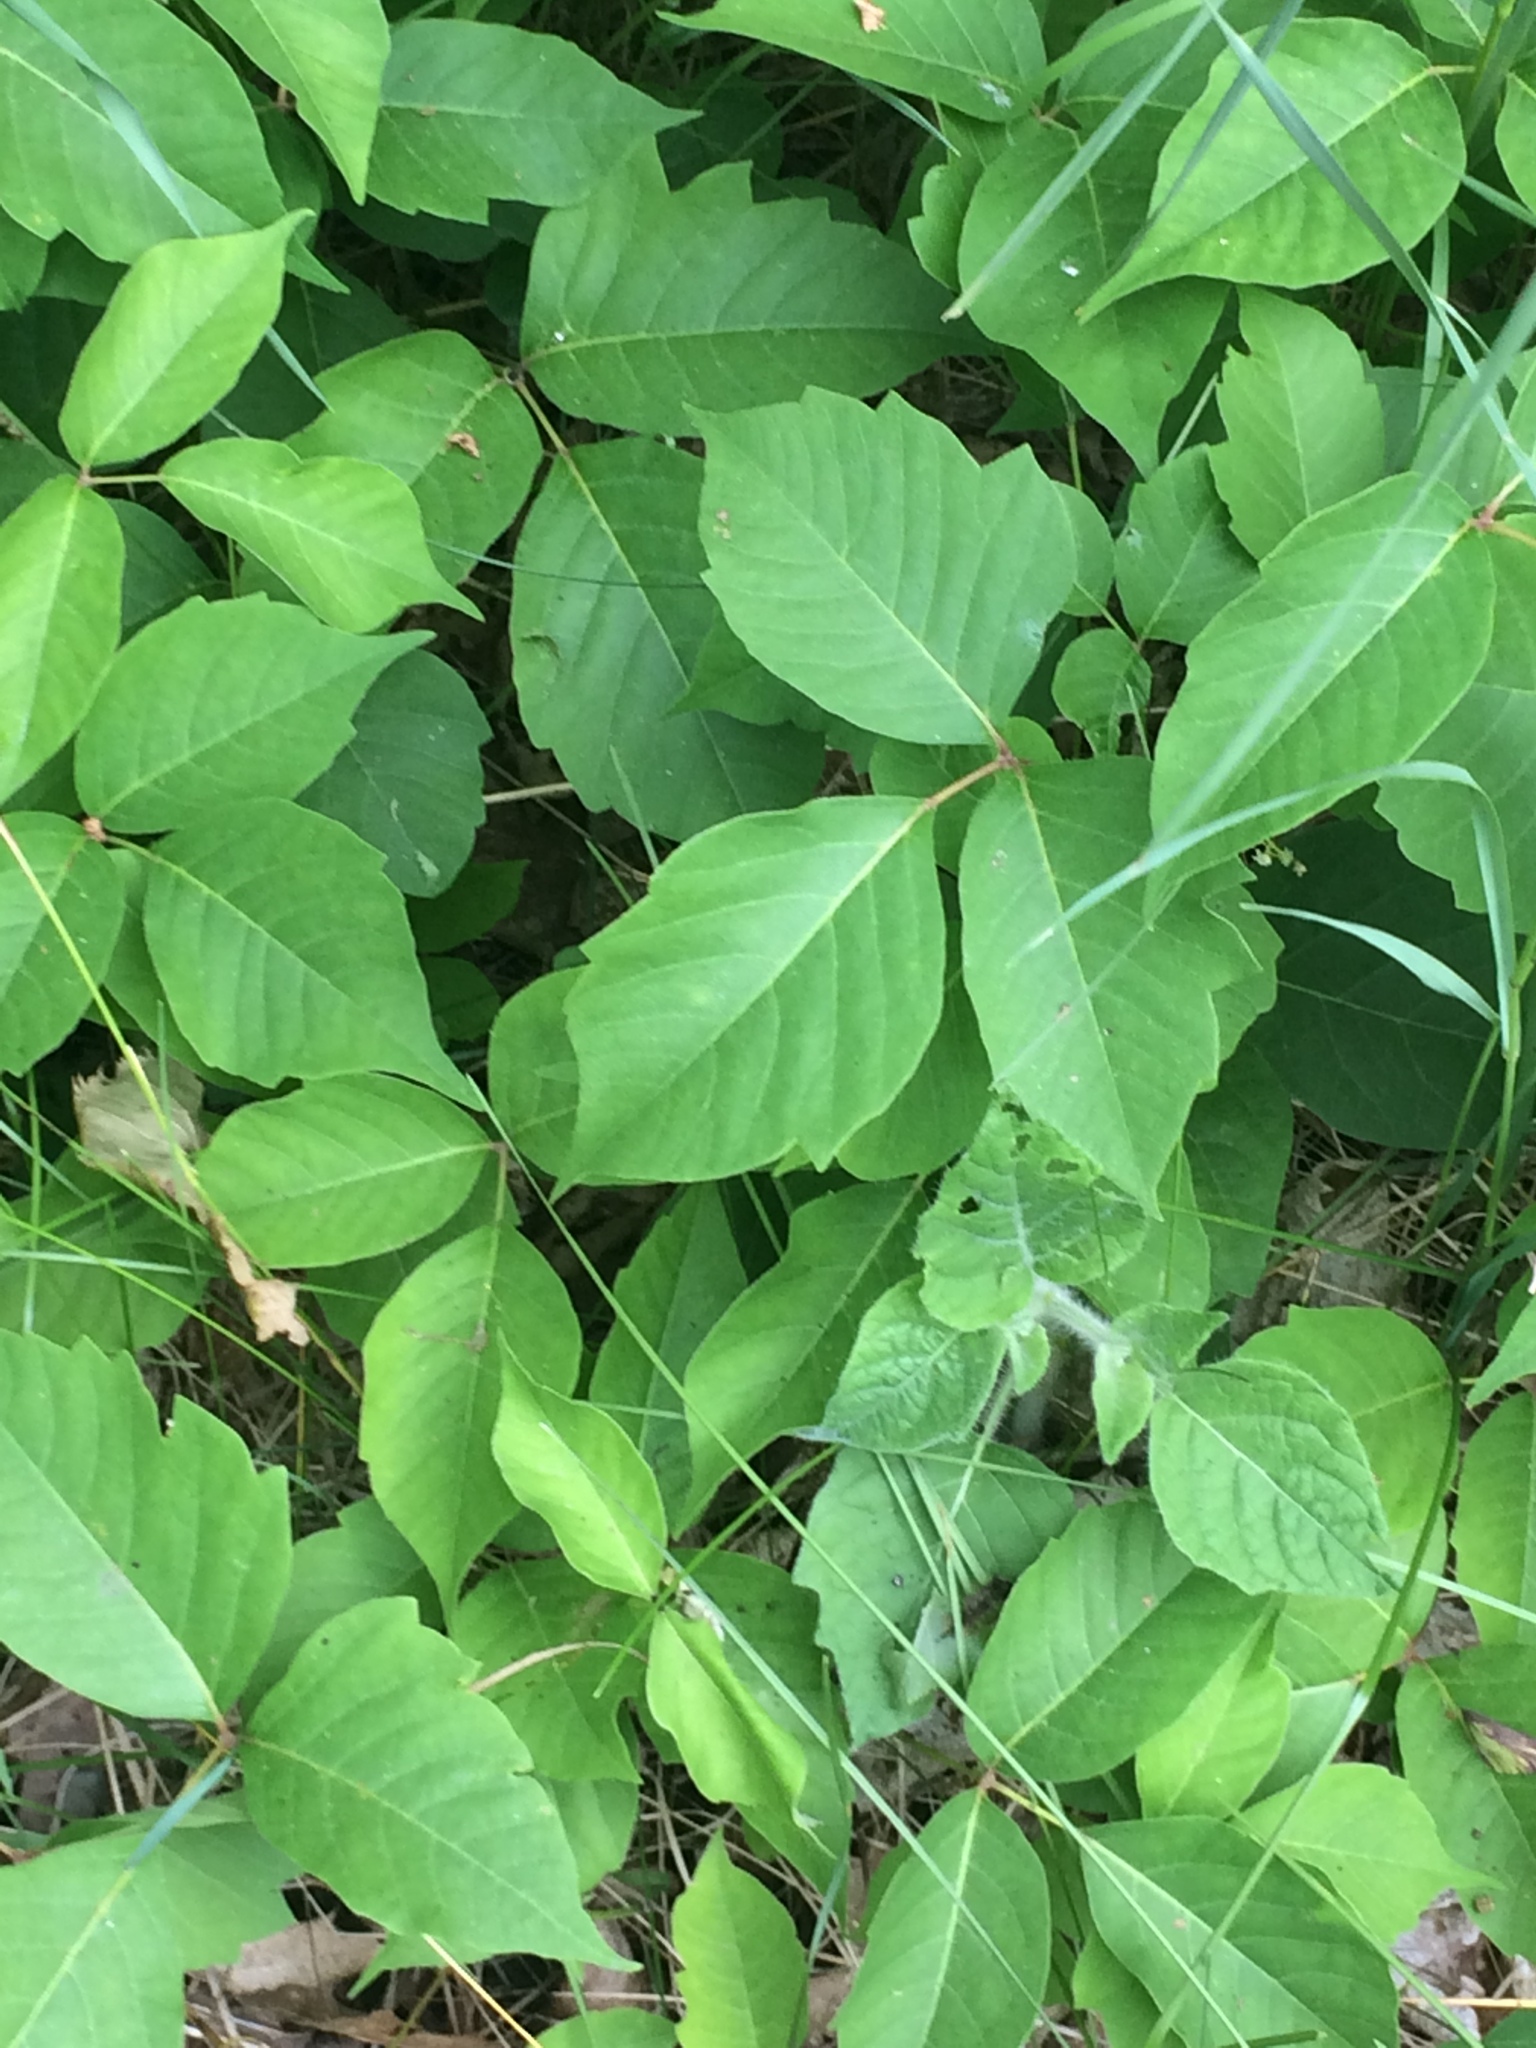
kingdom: Plantae
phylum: Tracheophyta
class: Magnoliopsida
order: Sapindales
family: Anacardiaceae
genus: Toxicodendron
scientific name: Toxicodendron rydbergii
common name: Rydberg's poison-ivy
